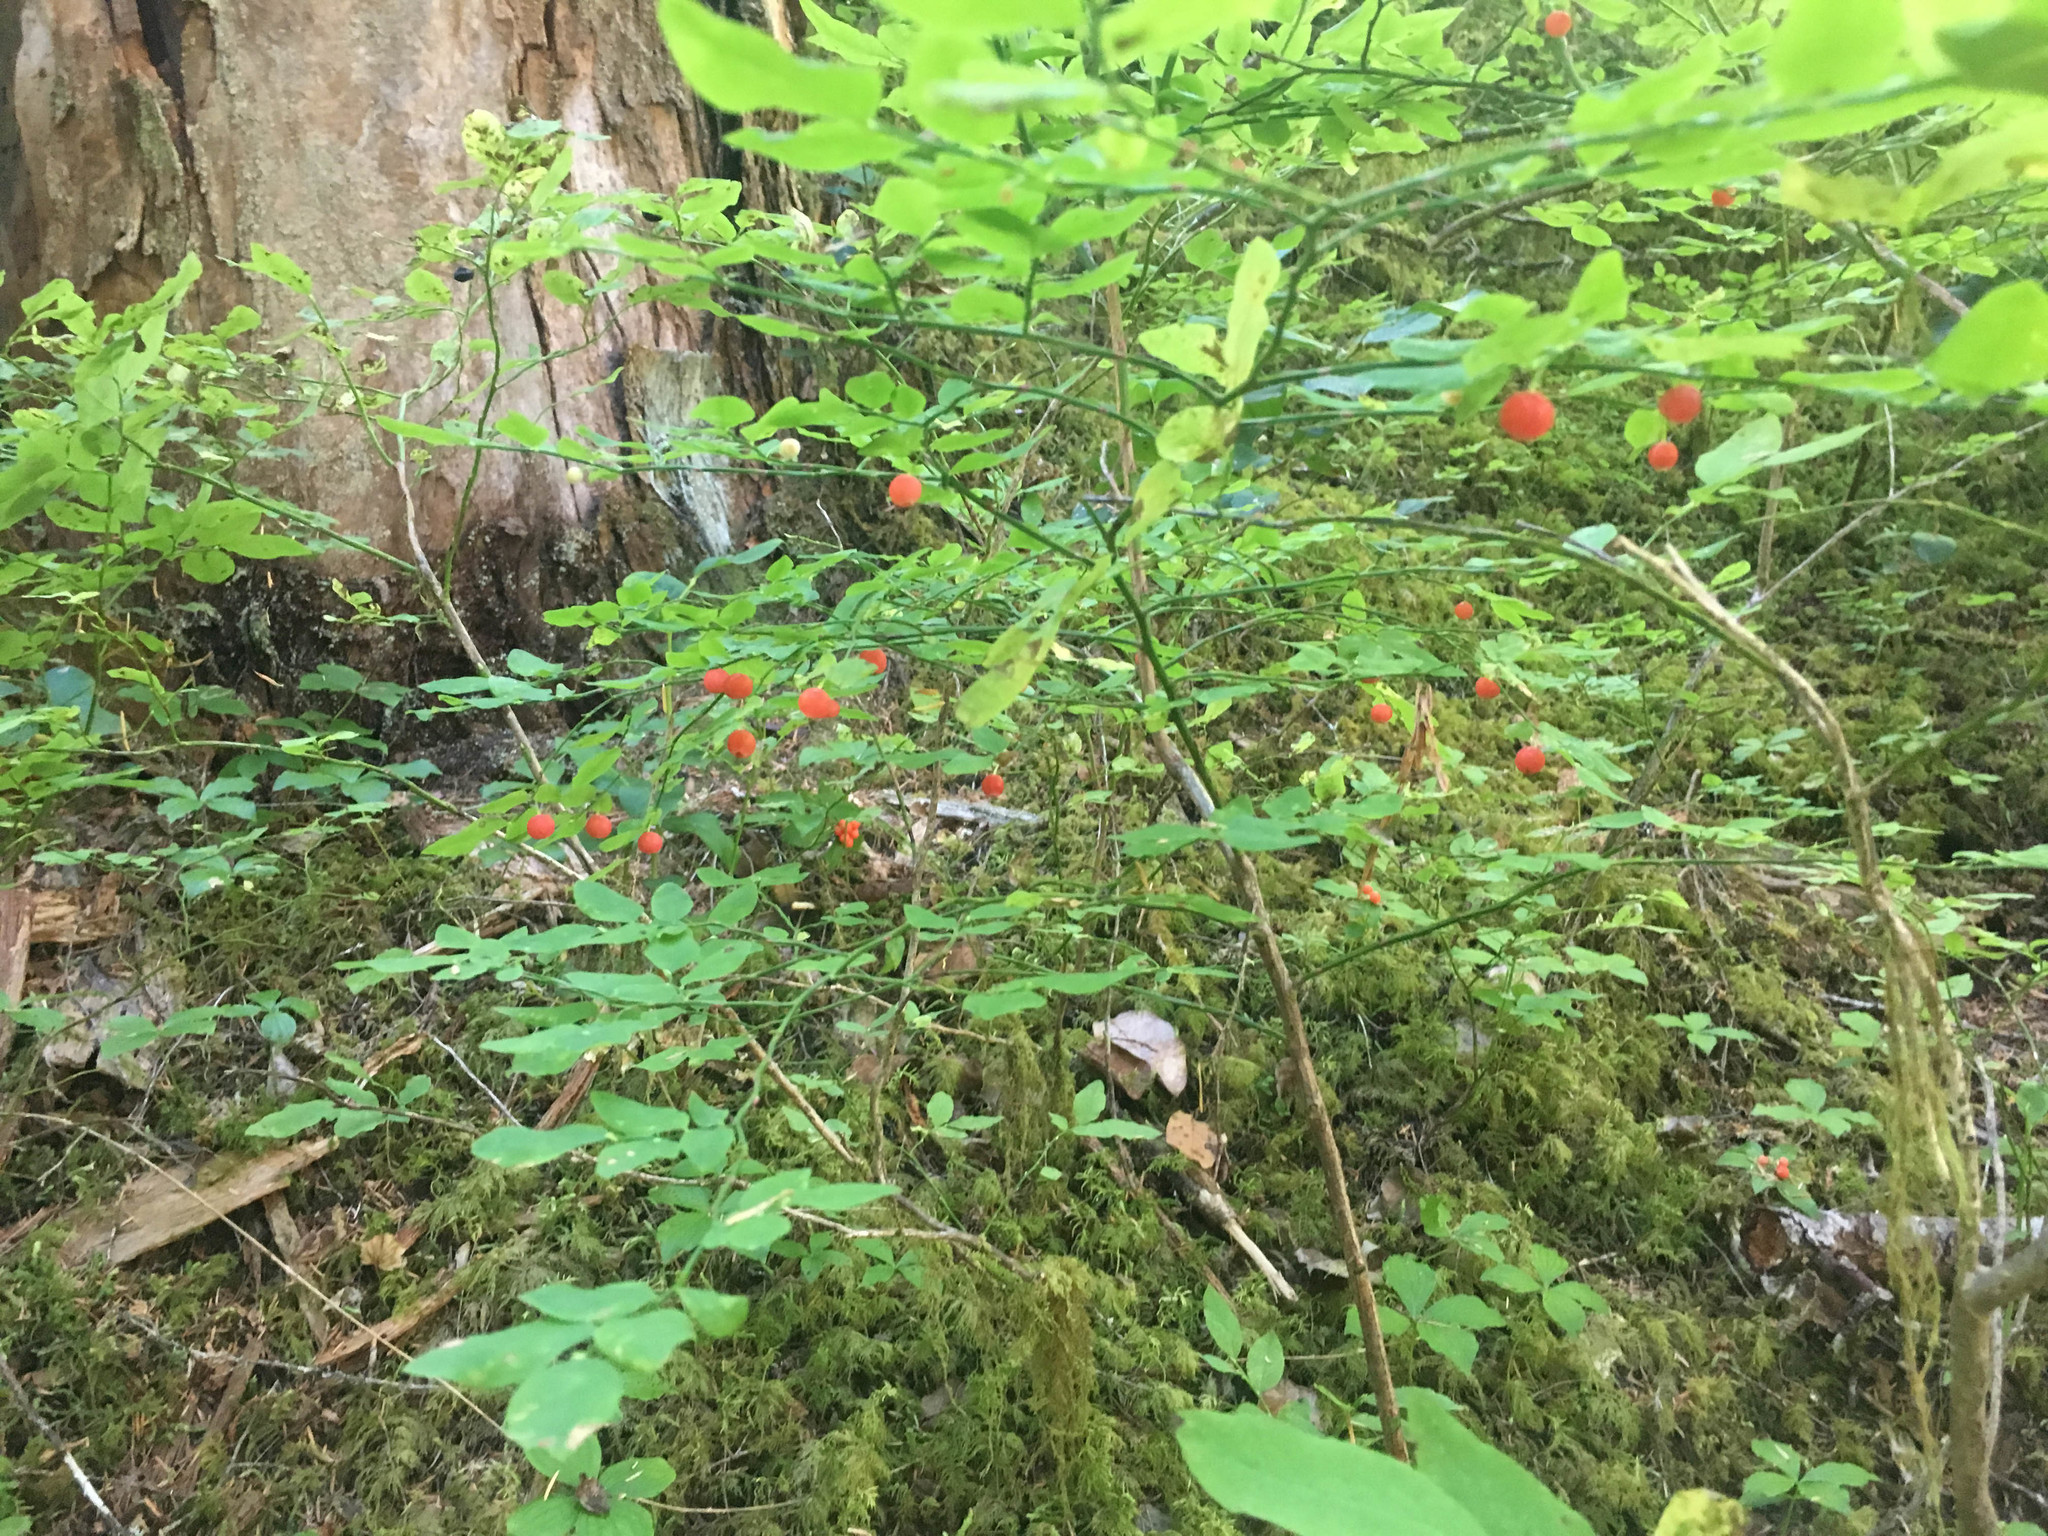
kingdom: Plantae
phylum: Tracheophyta
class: Magnoliopsida
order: Ericales
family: Ericaceae
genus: Vaccinium
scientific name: Vaccinium parvifolium
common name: Red-huckleberry
